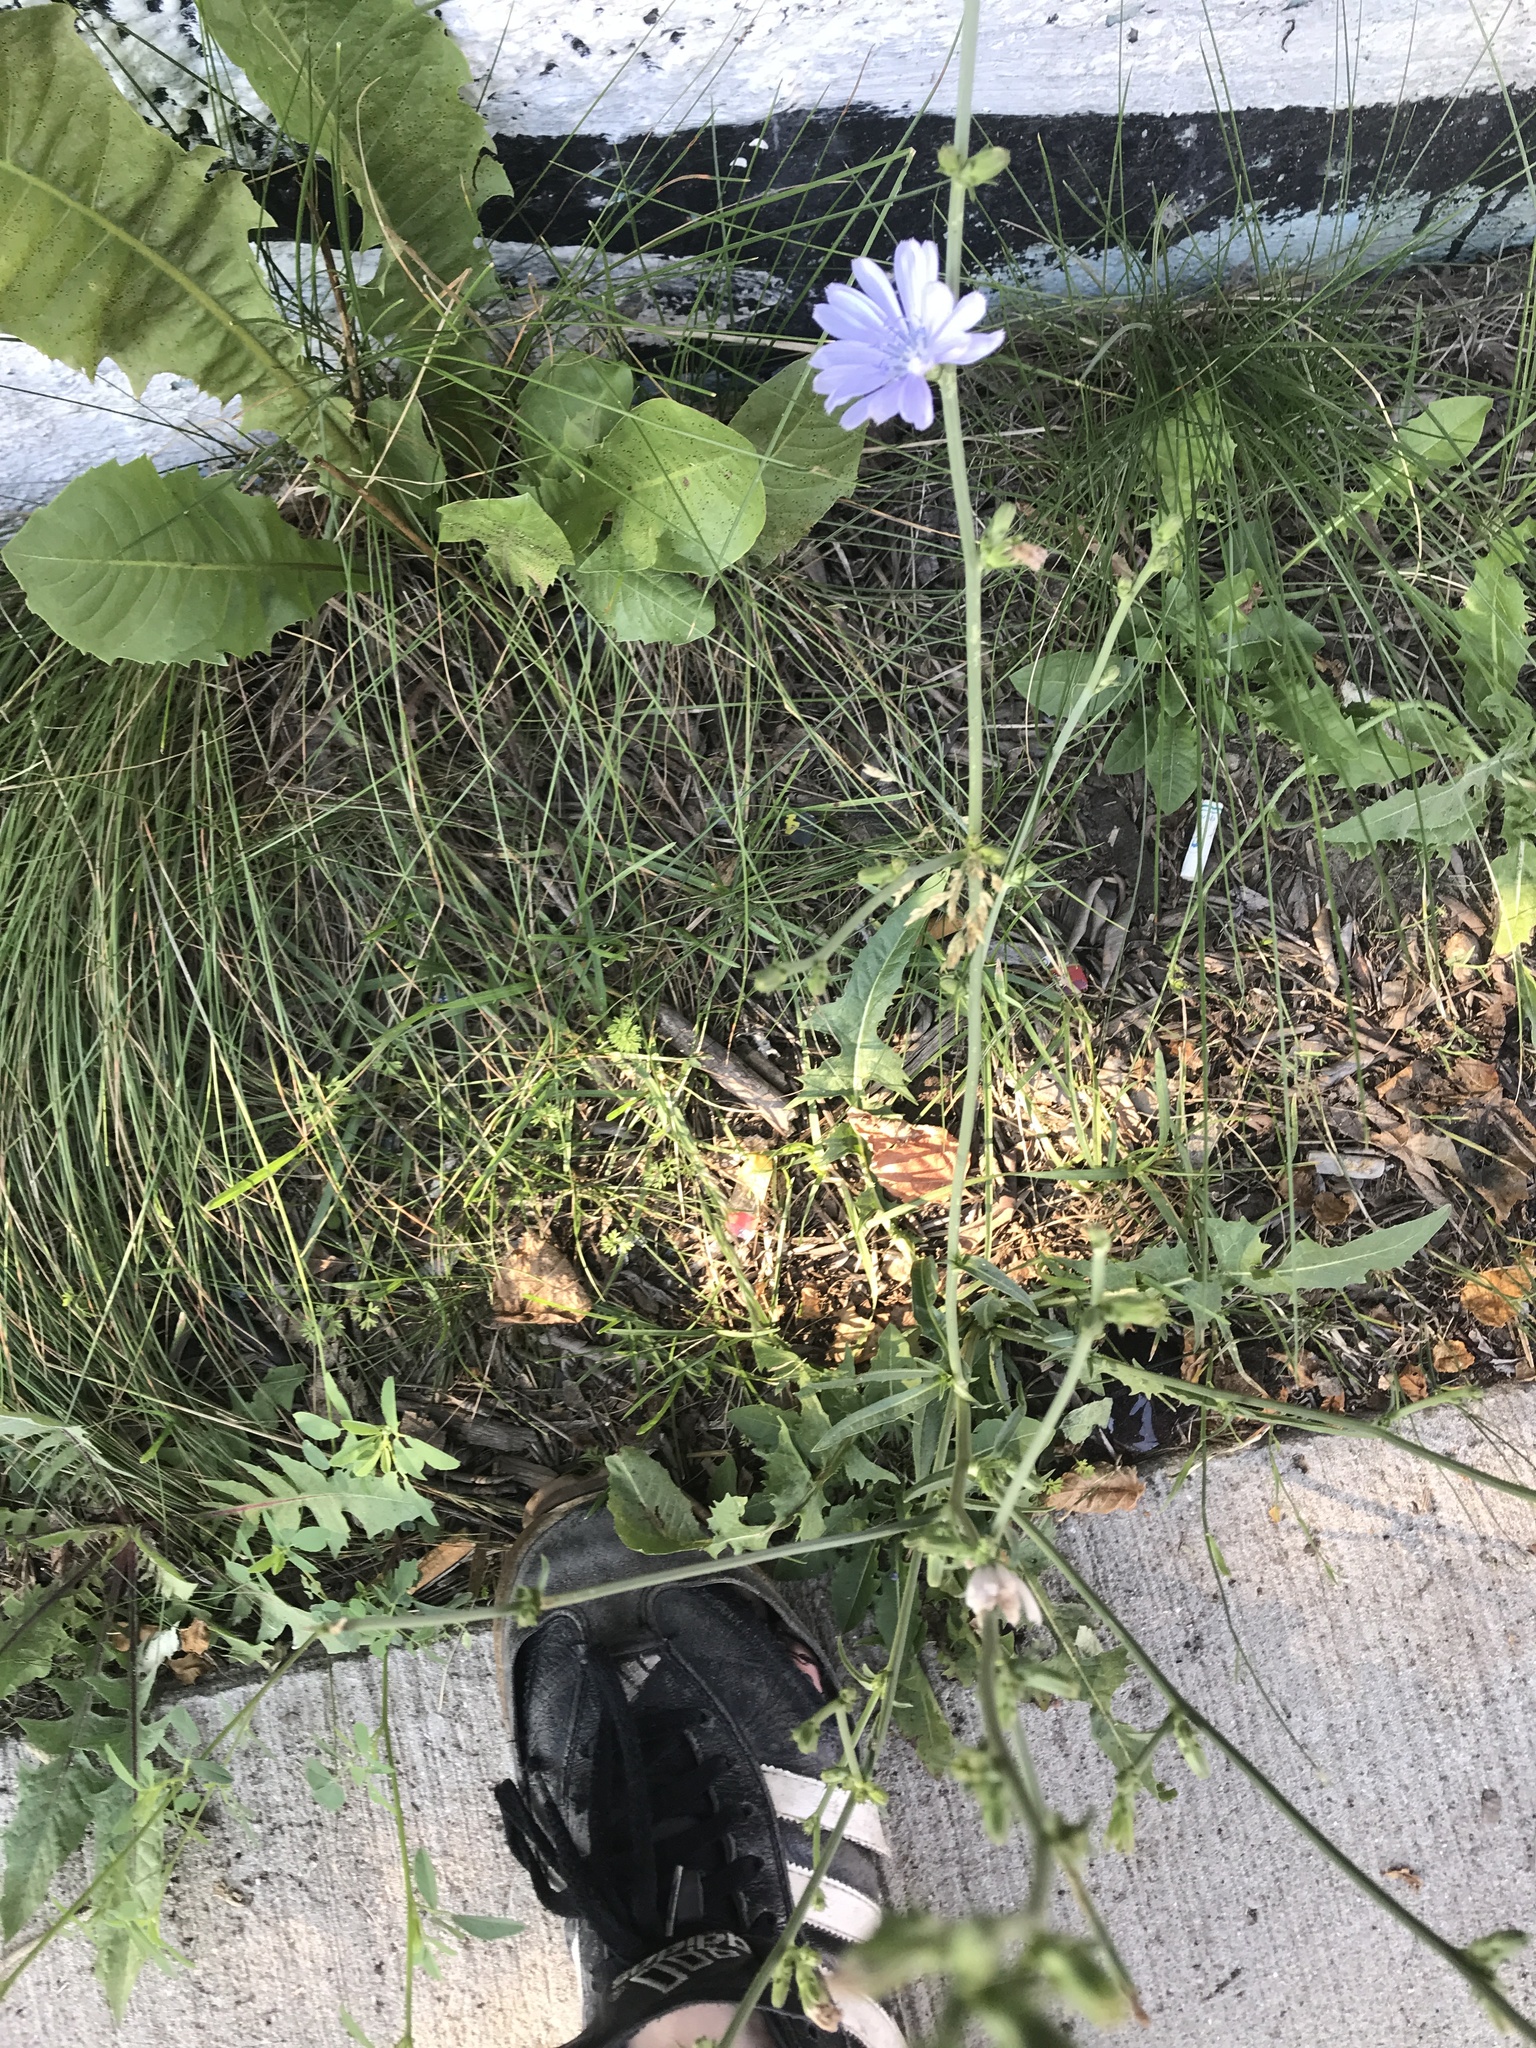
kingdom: Plantae
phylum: Tracheophyta
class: Magnoliopsida
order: Asterales
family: Asteraceae
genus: Cichorium
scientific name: Cichorium intybus
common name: Chicory
